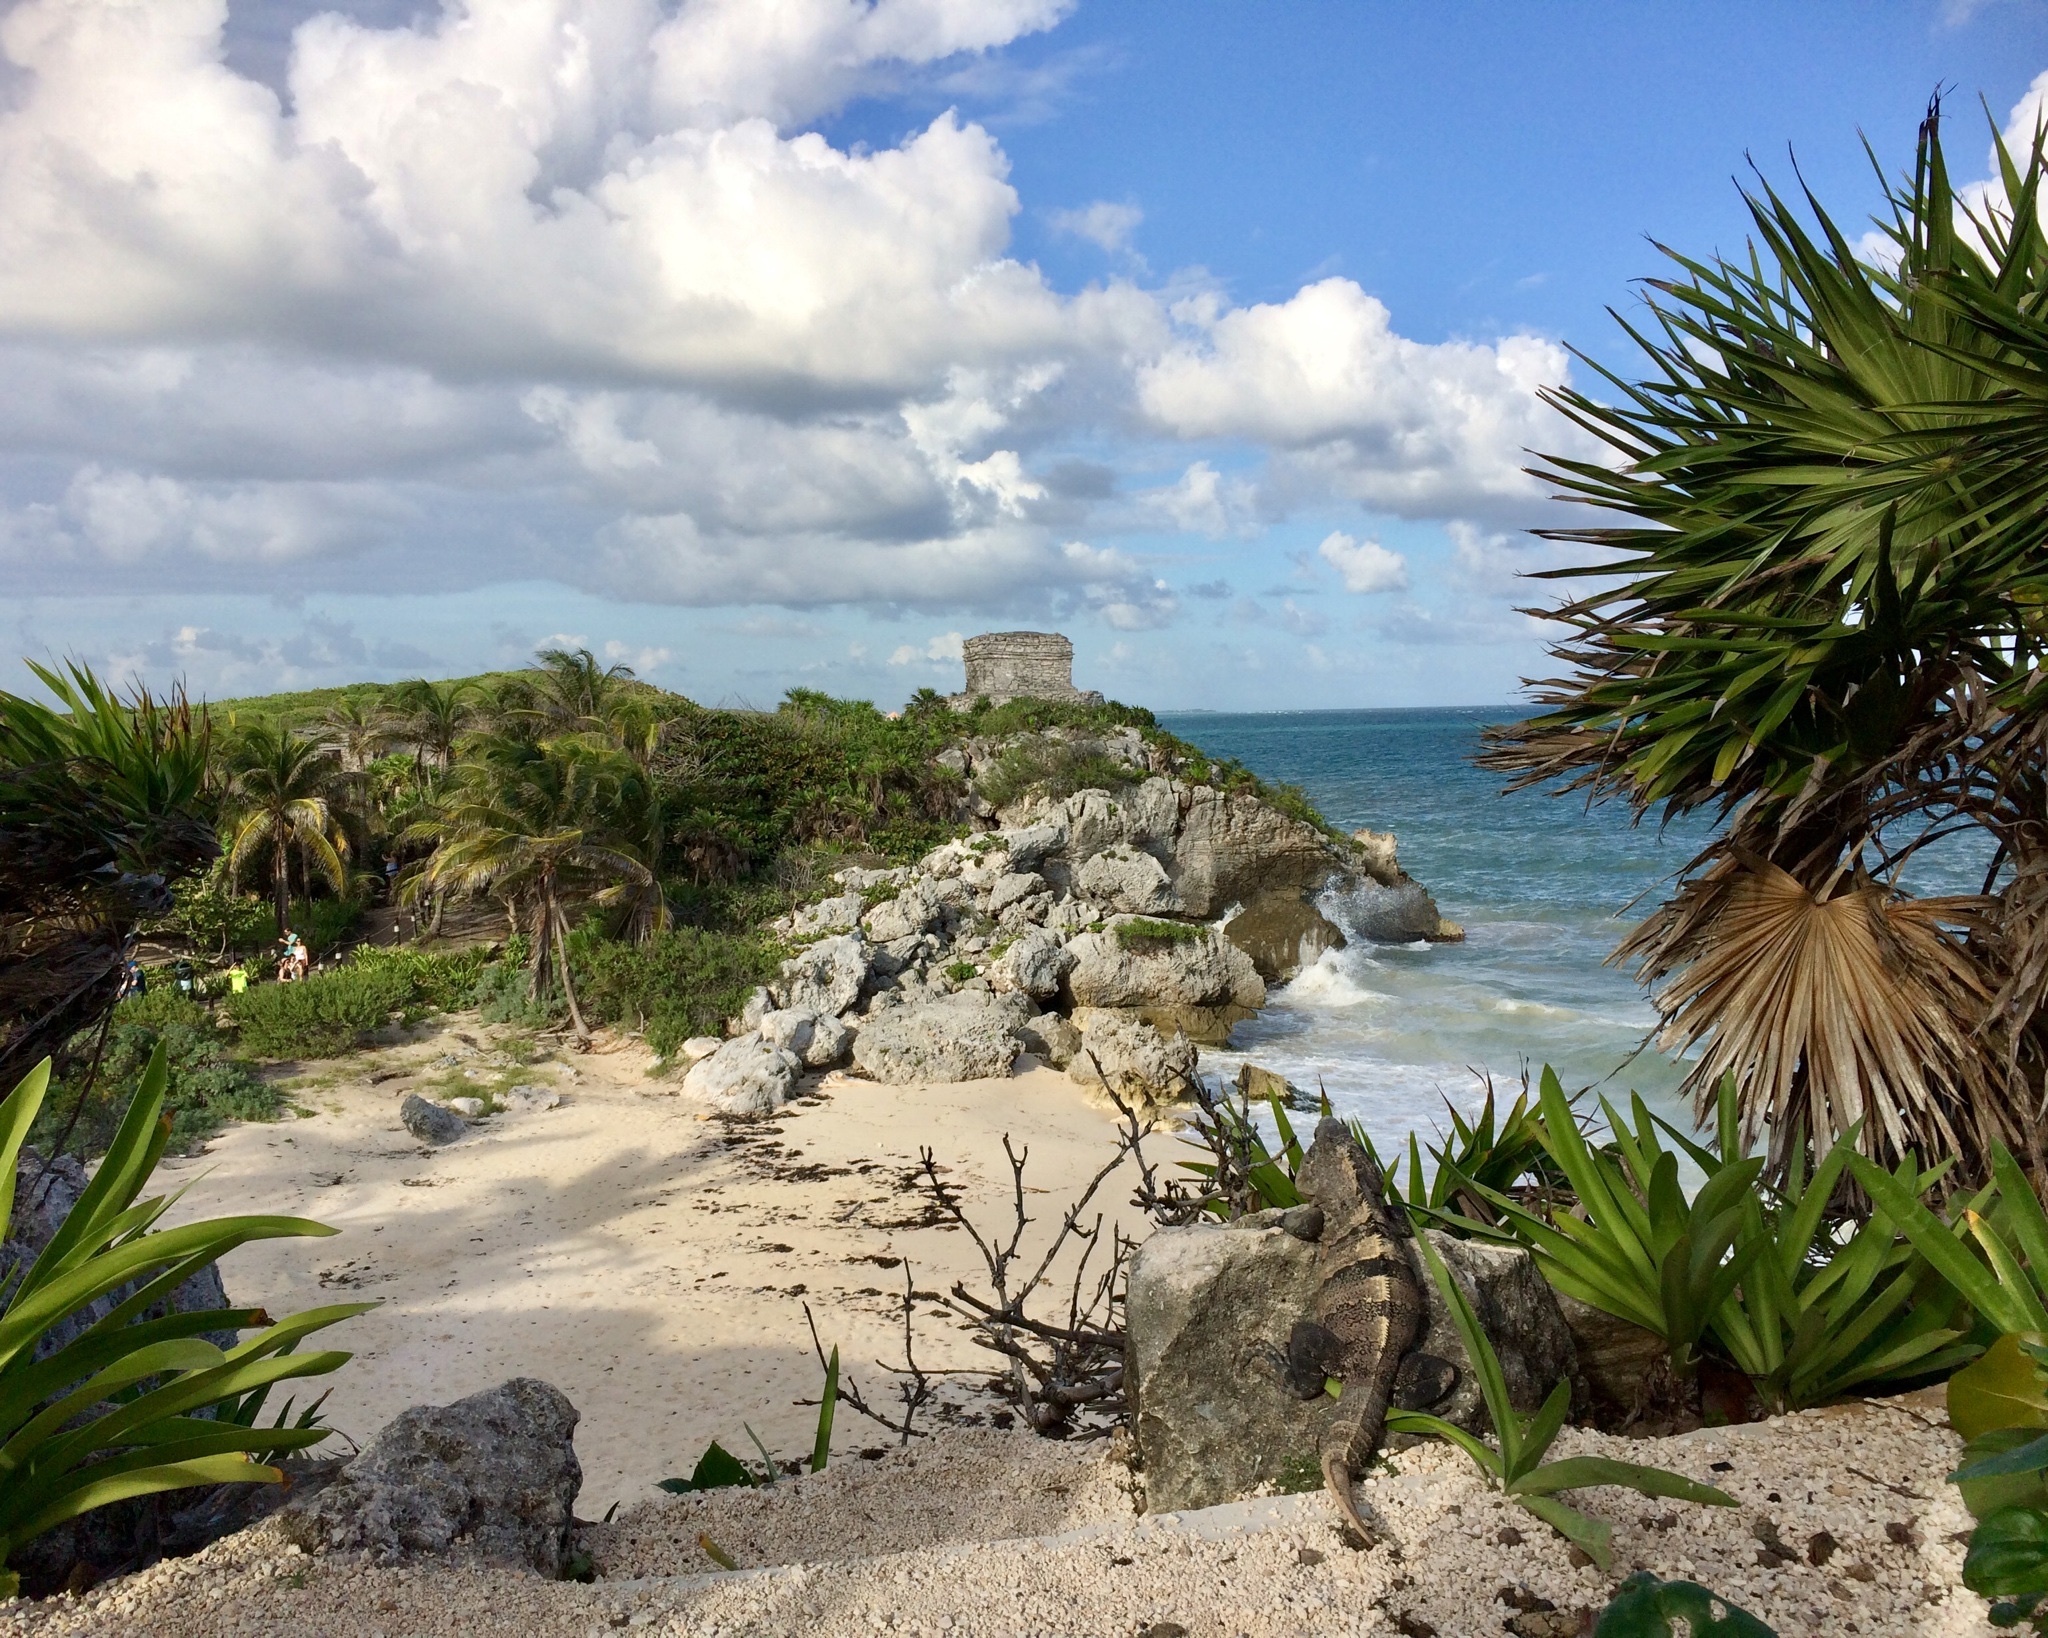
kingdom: Animalia
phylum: Chordata
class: Squamata
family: Iguanidae
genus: Ctenosaura
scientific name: Ctenosaura similis
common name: Black spiny-tailed iguana
